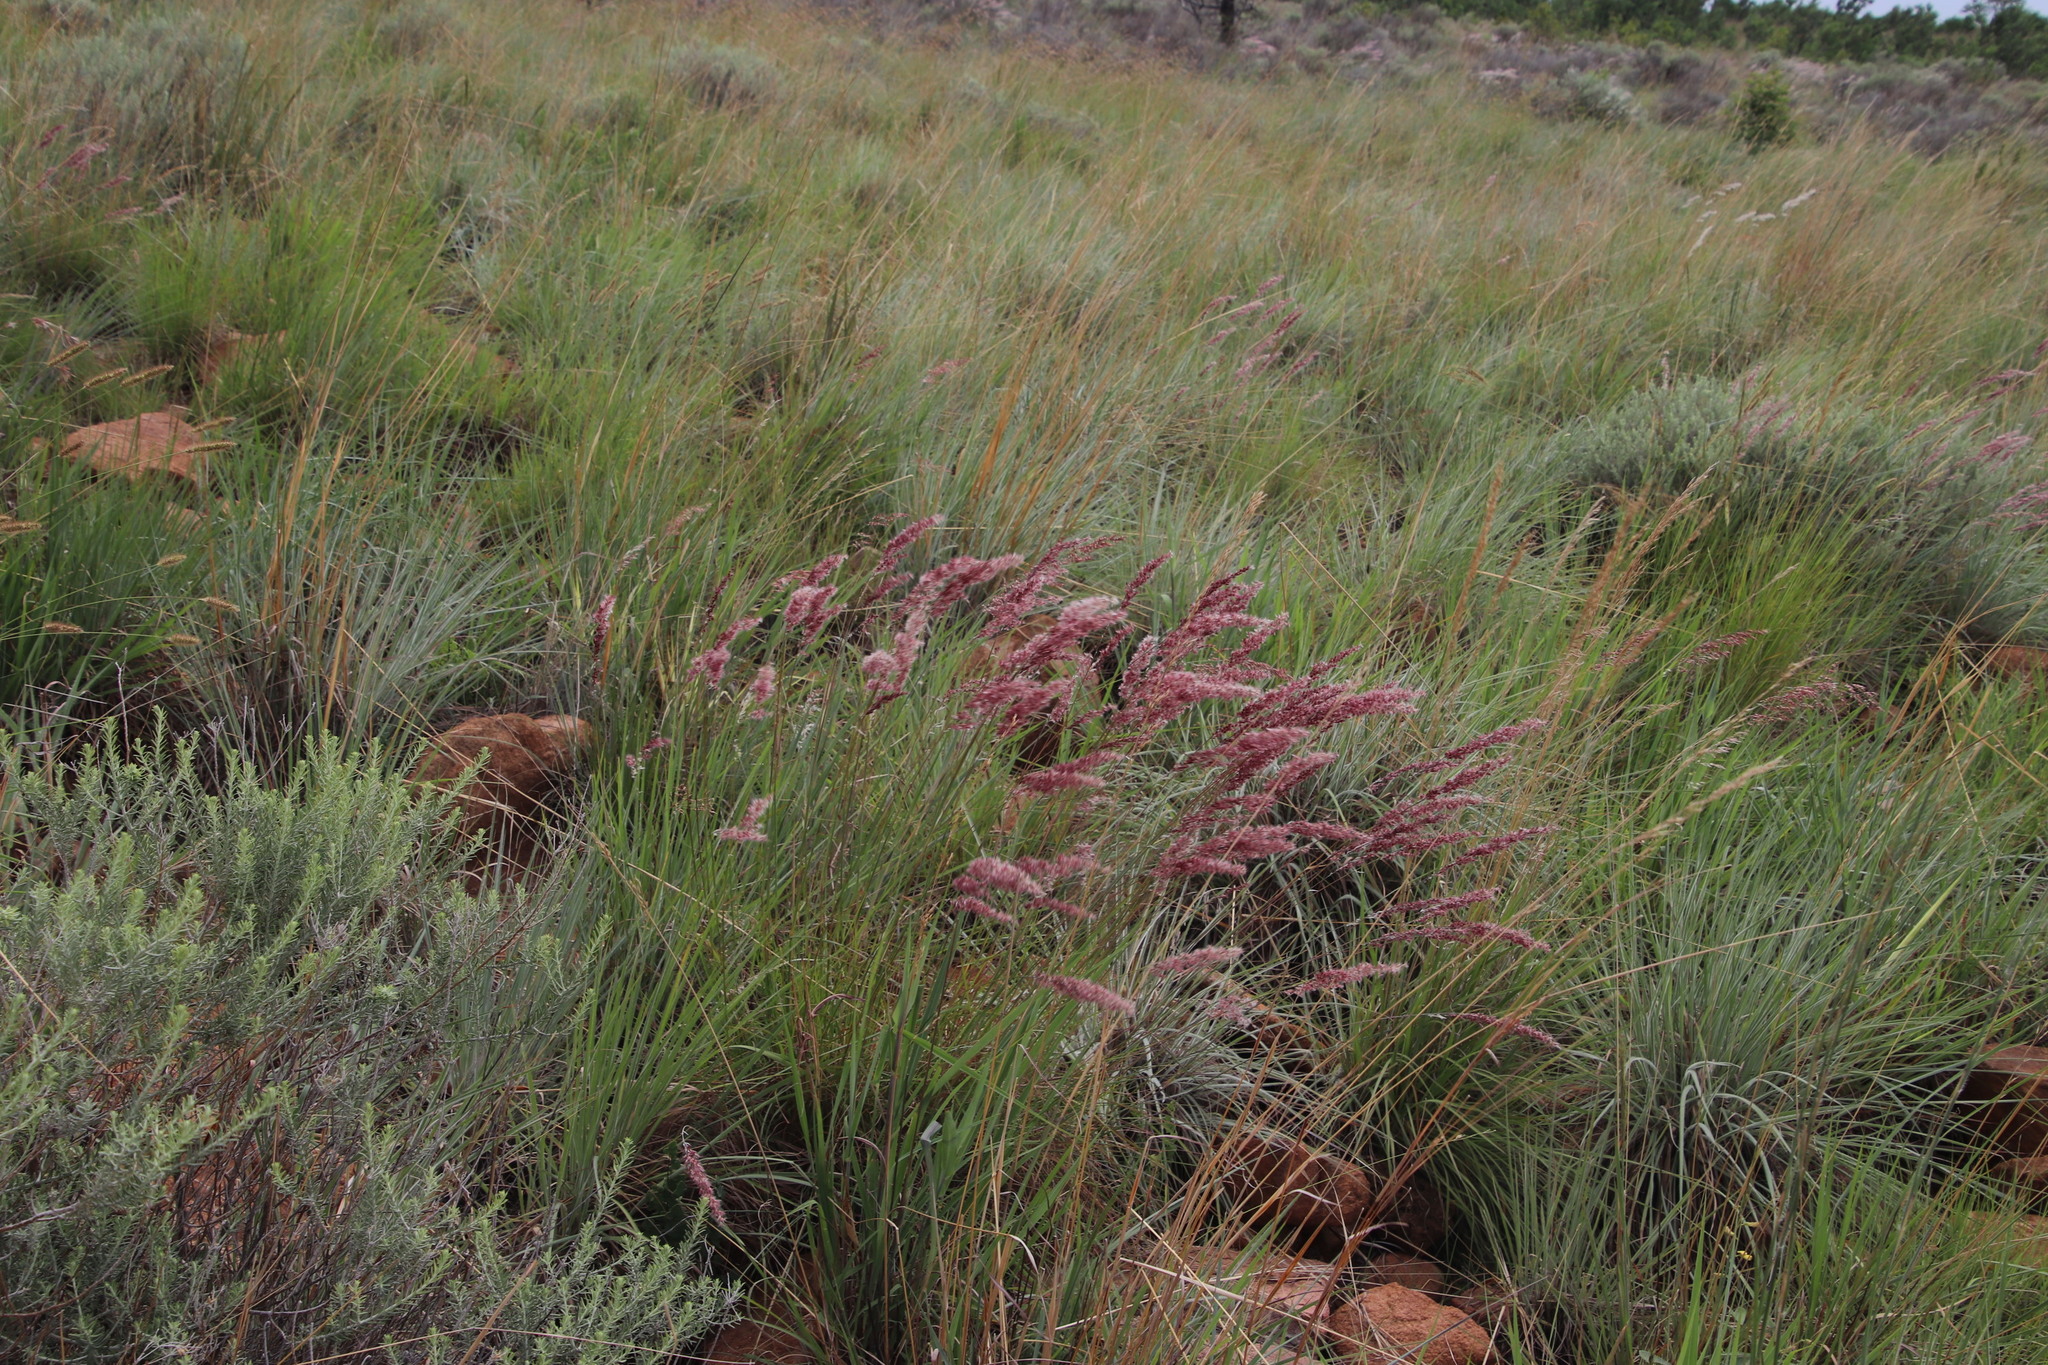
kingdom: Plantae
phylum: Tracheophyta
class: Liliopsida
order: Poales
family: Poaceae
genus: Melinis
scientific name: Melinis nerviglumis
